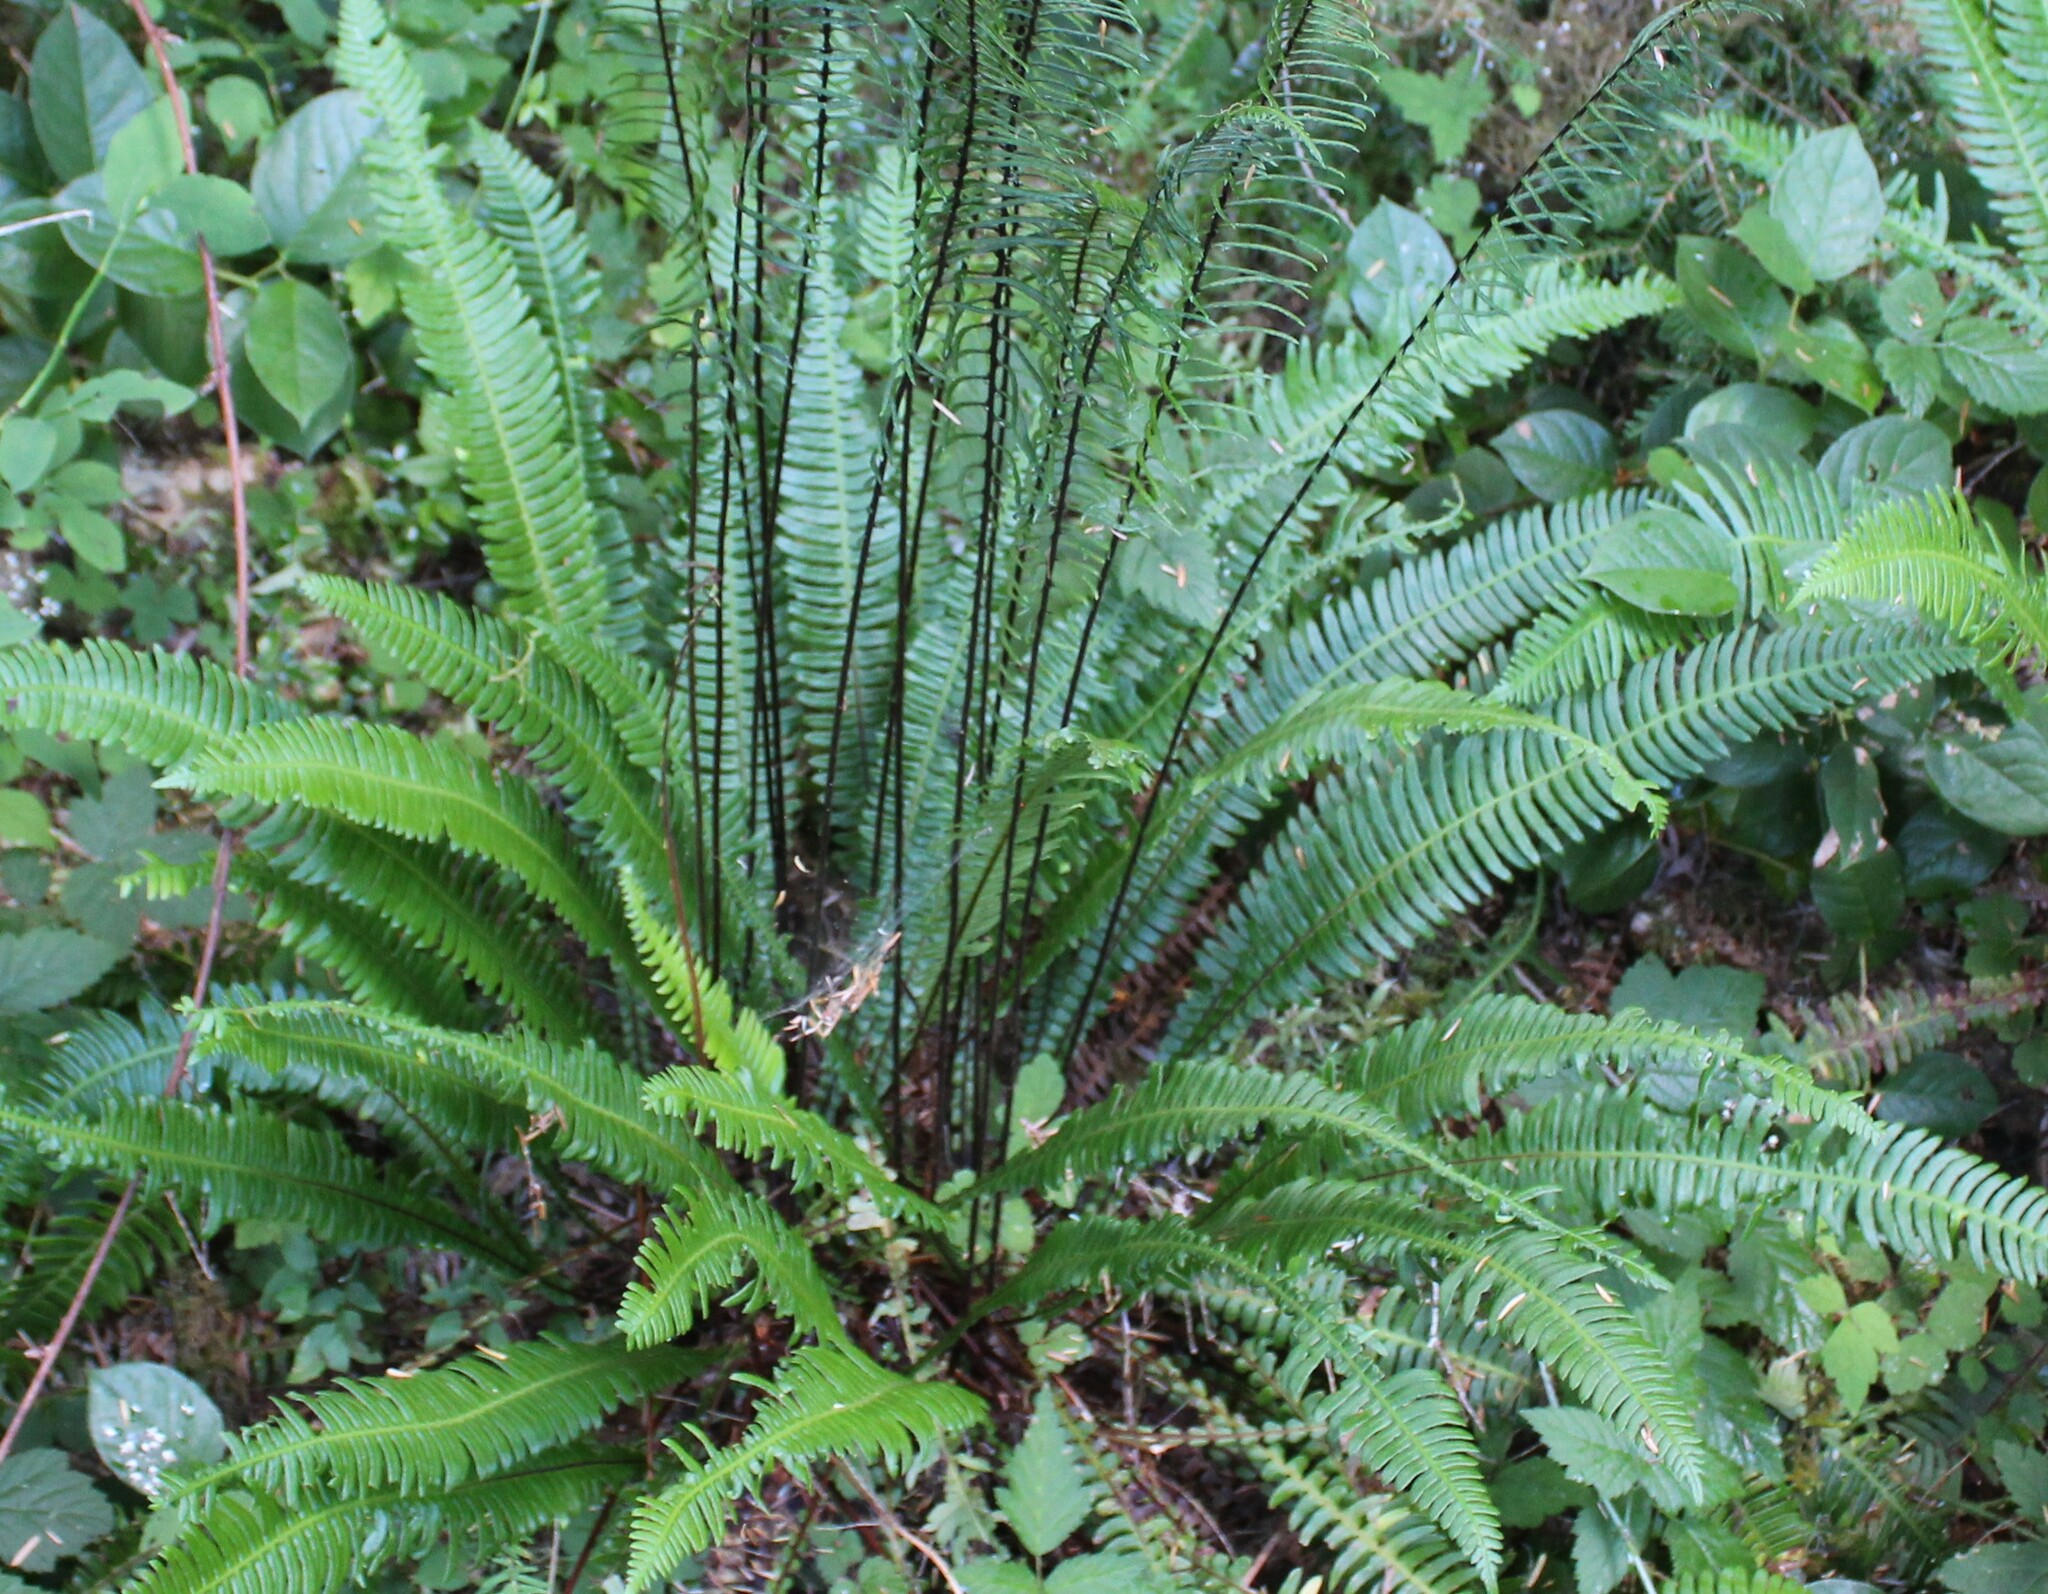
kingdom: Plantae
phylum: Tracheophyta
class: Polypodiopsida
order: Polypodiales
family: Blechnaceae
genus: Struthiopteris
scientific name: Struthiopteris spicant
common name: Deer fern
